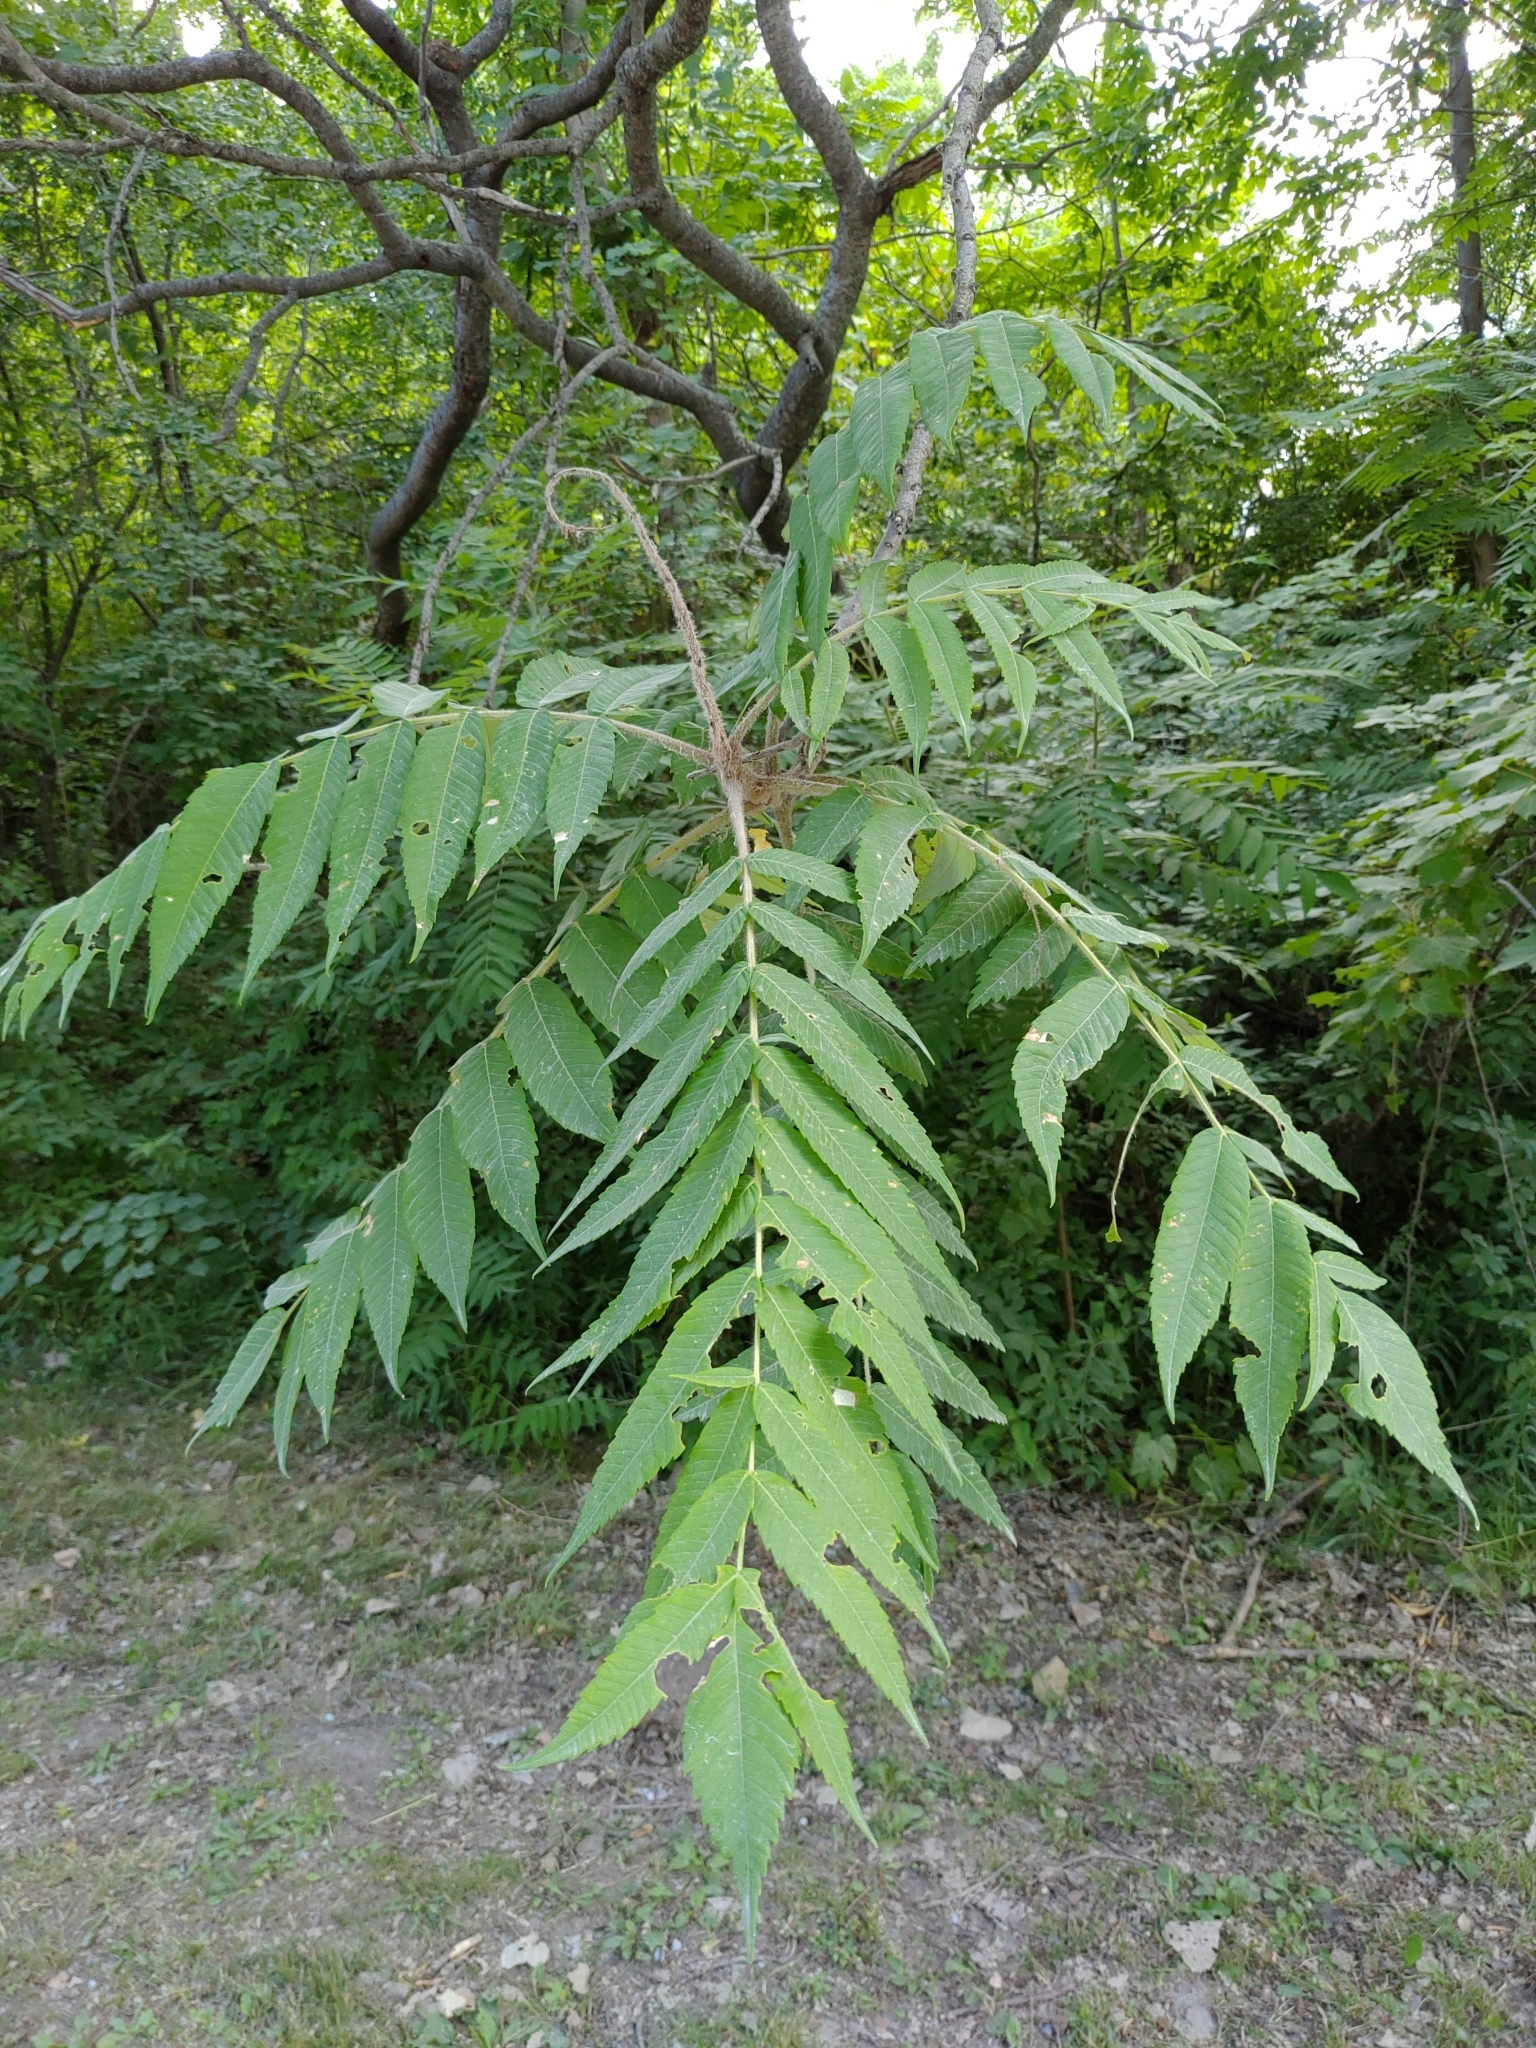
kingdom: Plantae
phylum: Tracheophyta
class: Magnoliopsida
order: Sapindales
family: Anacardiaceae
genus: Rhus
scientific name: Rhus typhina
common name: Staghorn sumac
